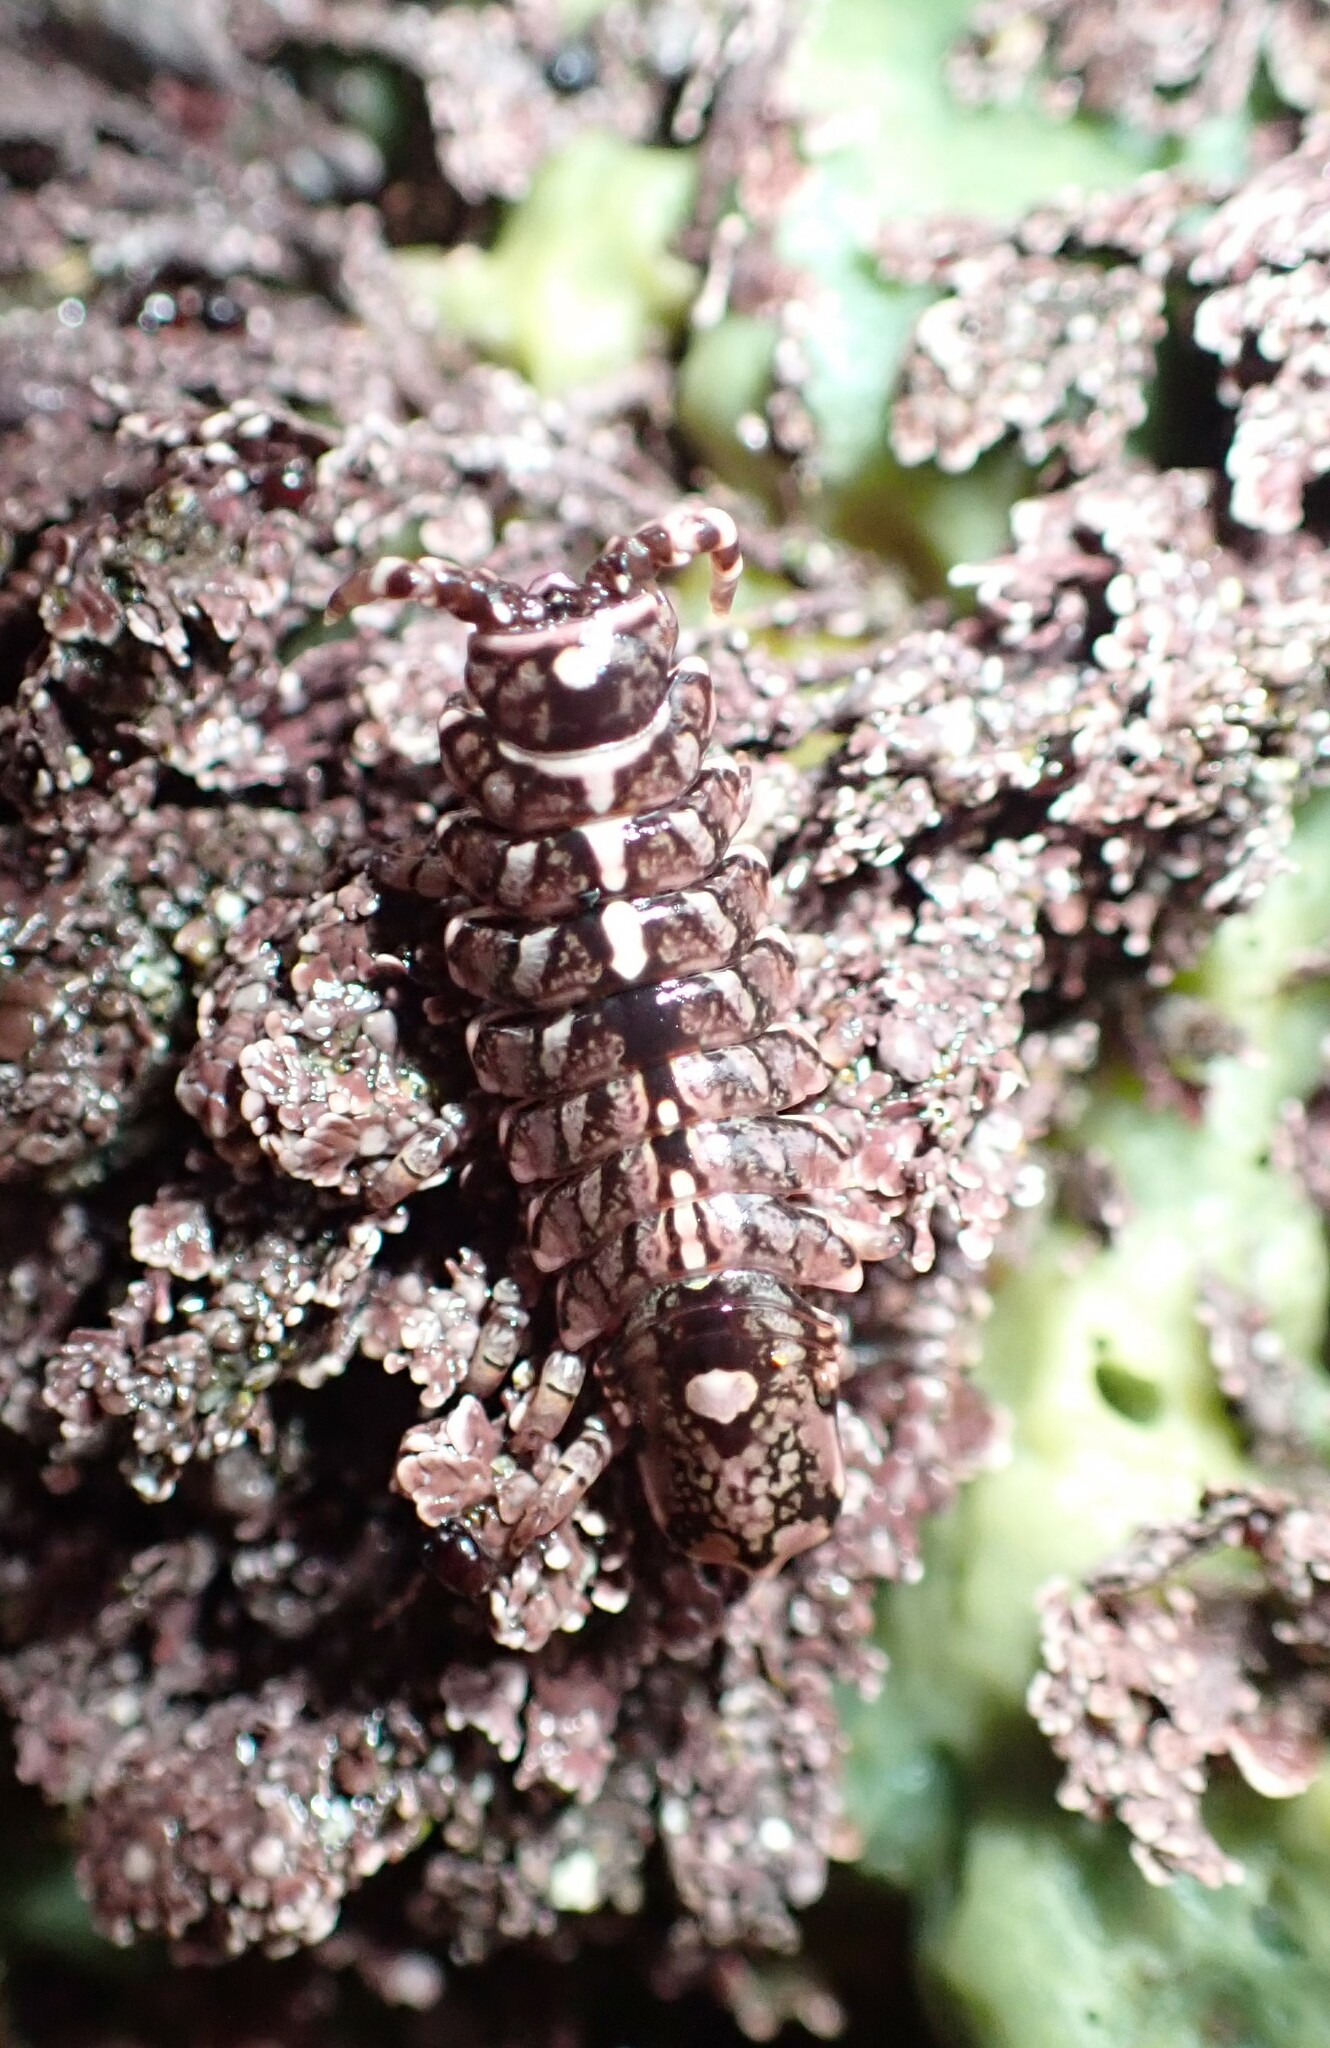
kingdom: Animalia
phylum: Arthropoda
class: Malacostraca
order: Isopoda
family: Idoteidae
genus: Pentidotea
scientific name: Pentidotea wosnesenskii
